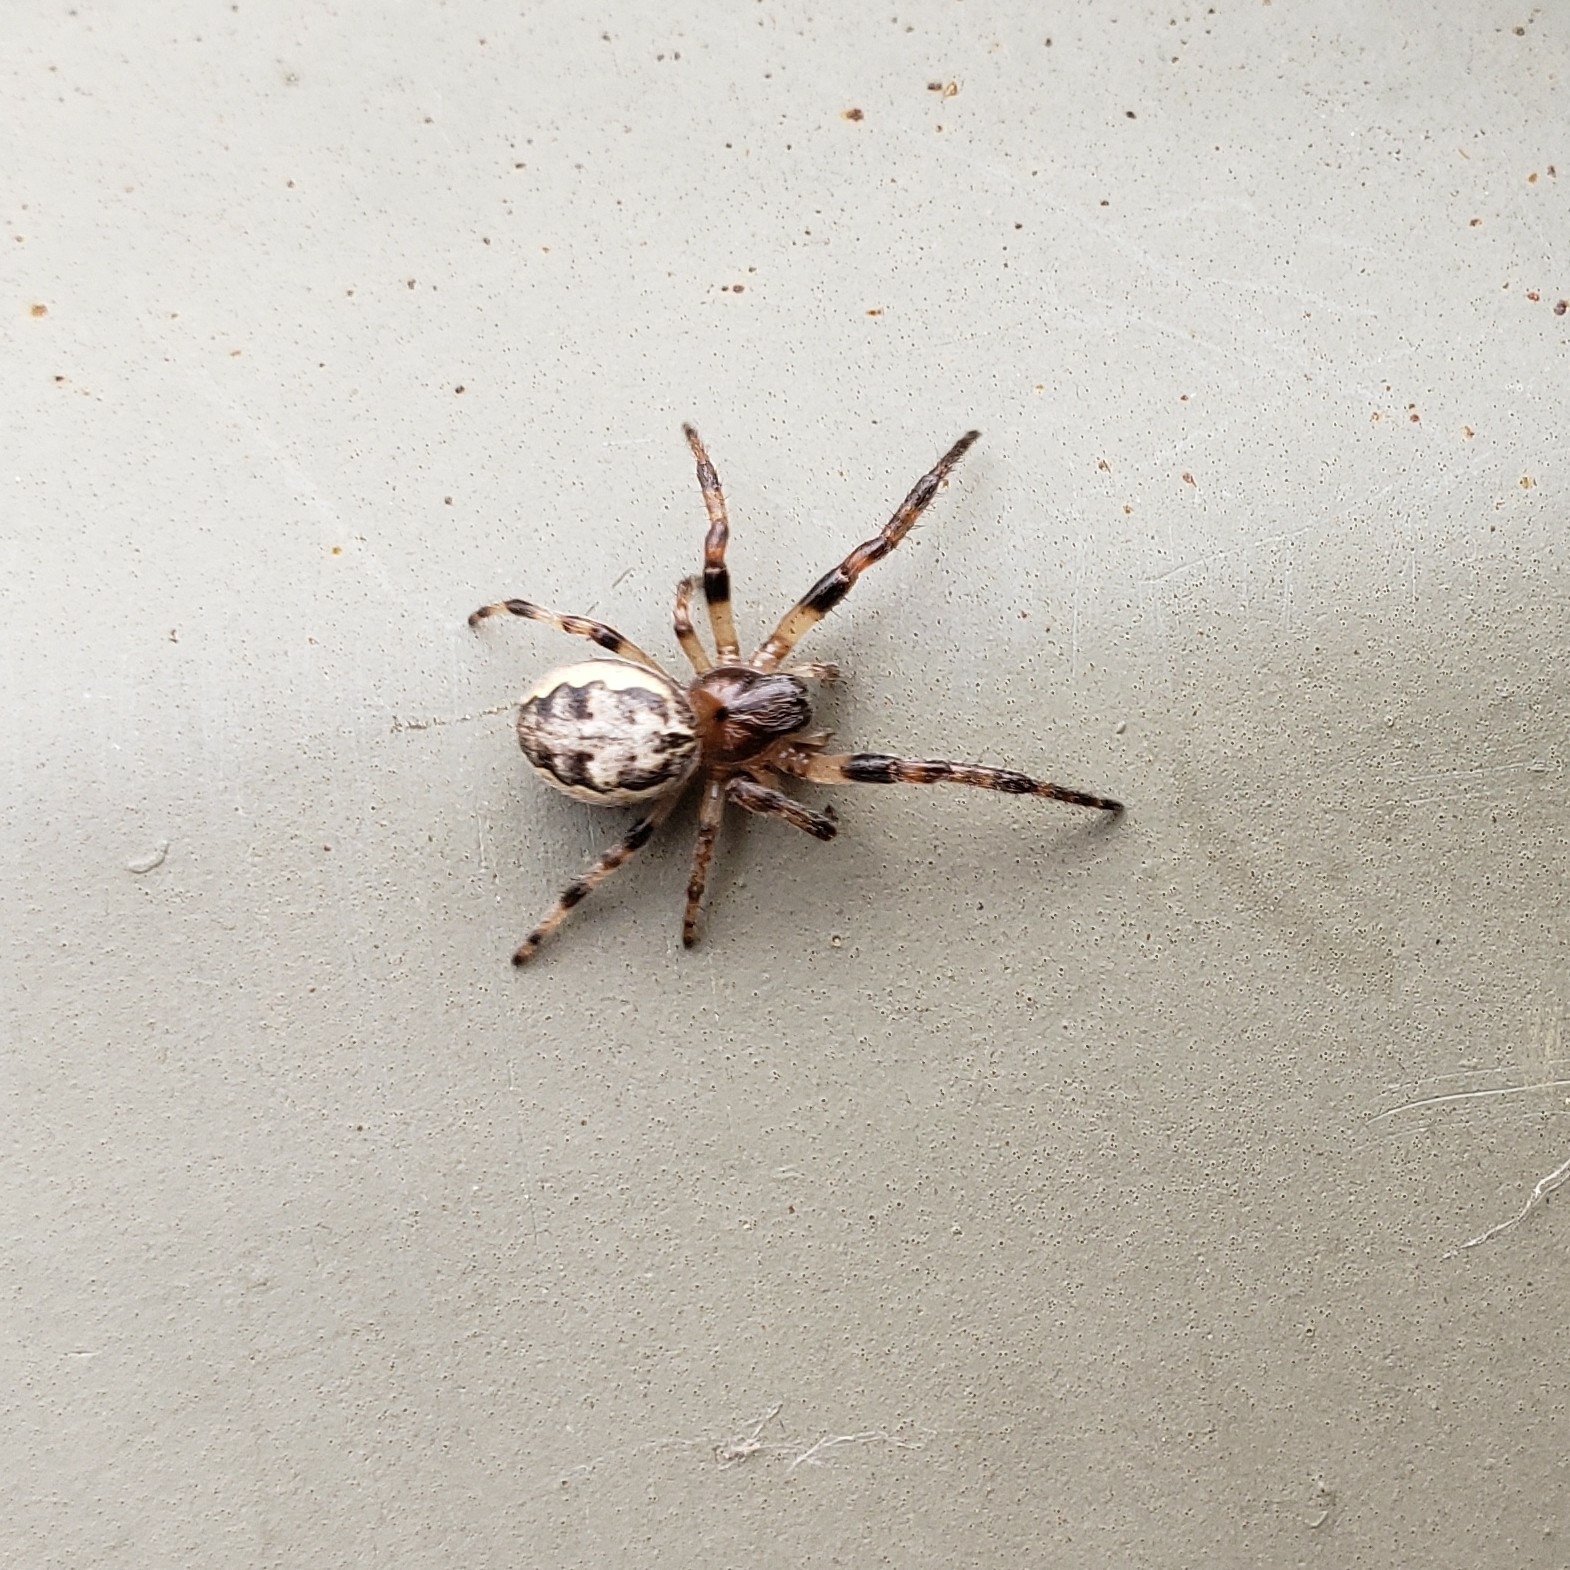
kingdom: Animalia
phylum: Arthropoda
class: Arachnida
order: Araneae
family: Araneidae
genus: Larinioides
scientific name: Larinioides cornutus
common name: Furrow orbweaver
